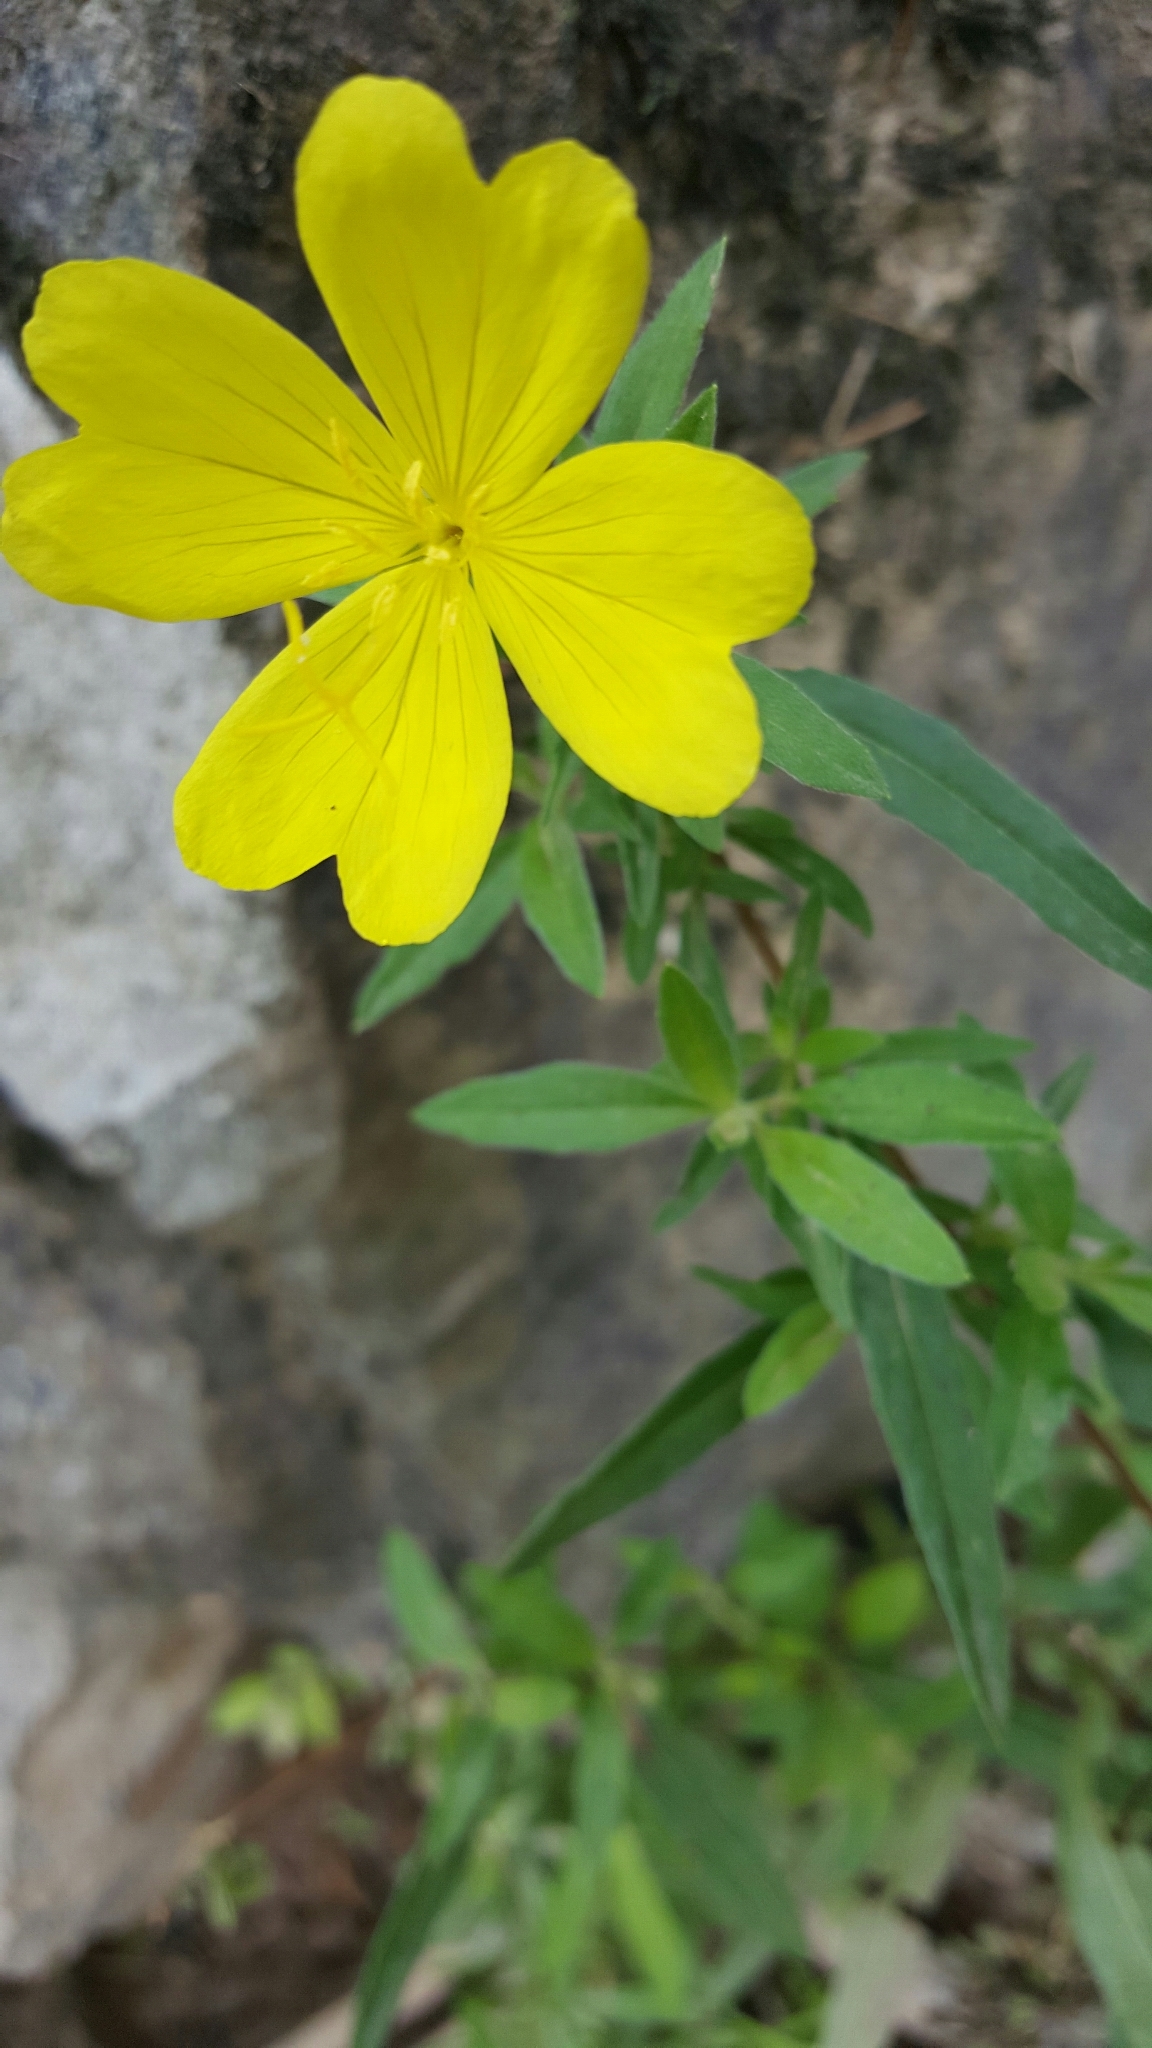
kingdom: Plantae
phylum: Tracheophyta
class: Magnoliopsida
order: Myrtales
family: Onagraceae
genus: Oenothera
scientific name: Oenothera fruticosa
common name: Southern sundrops
